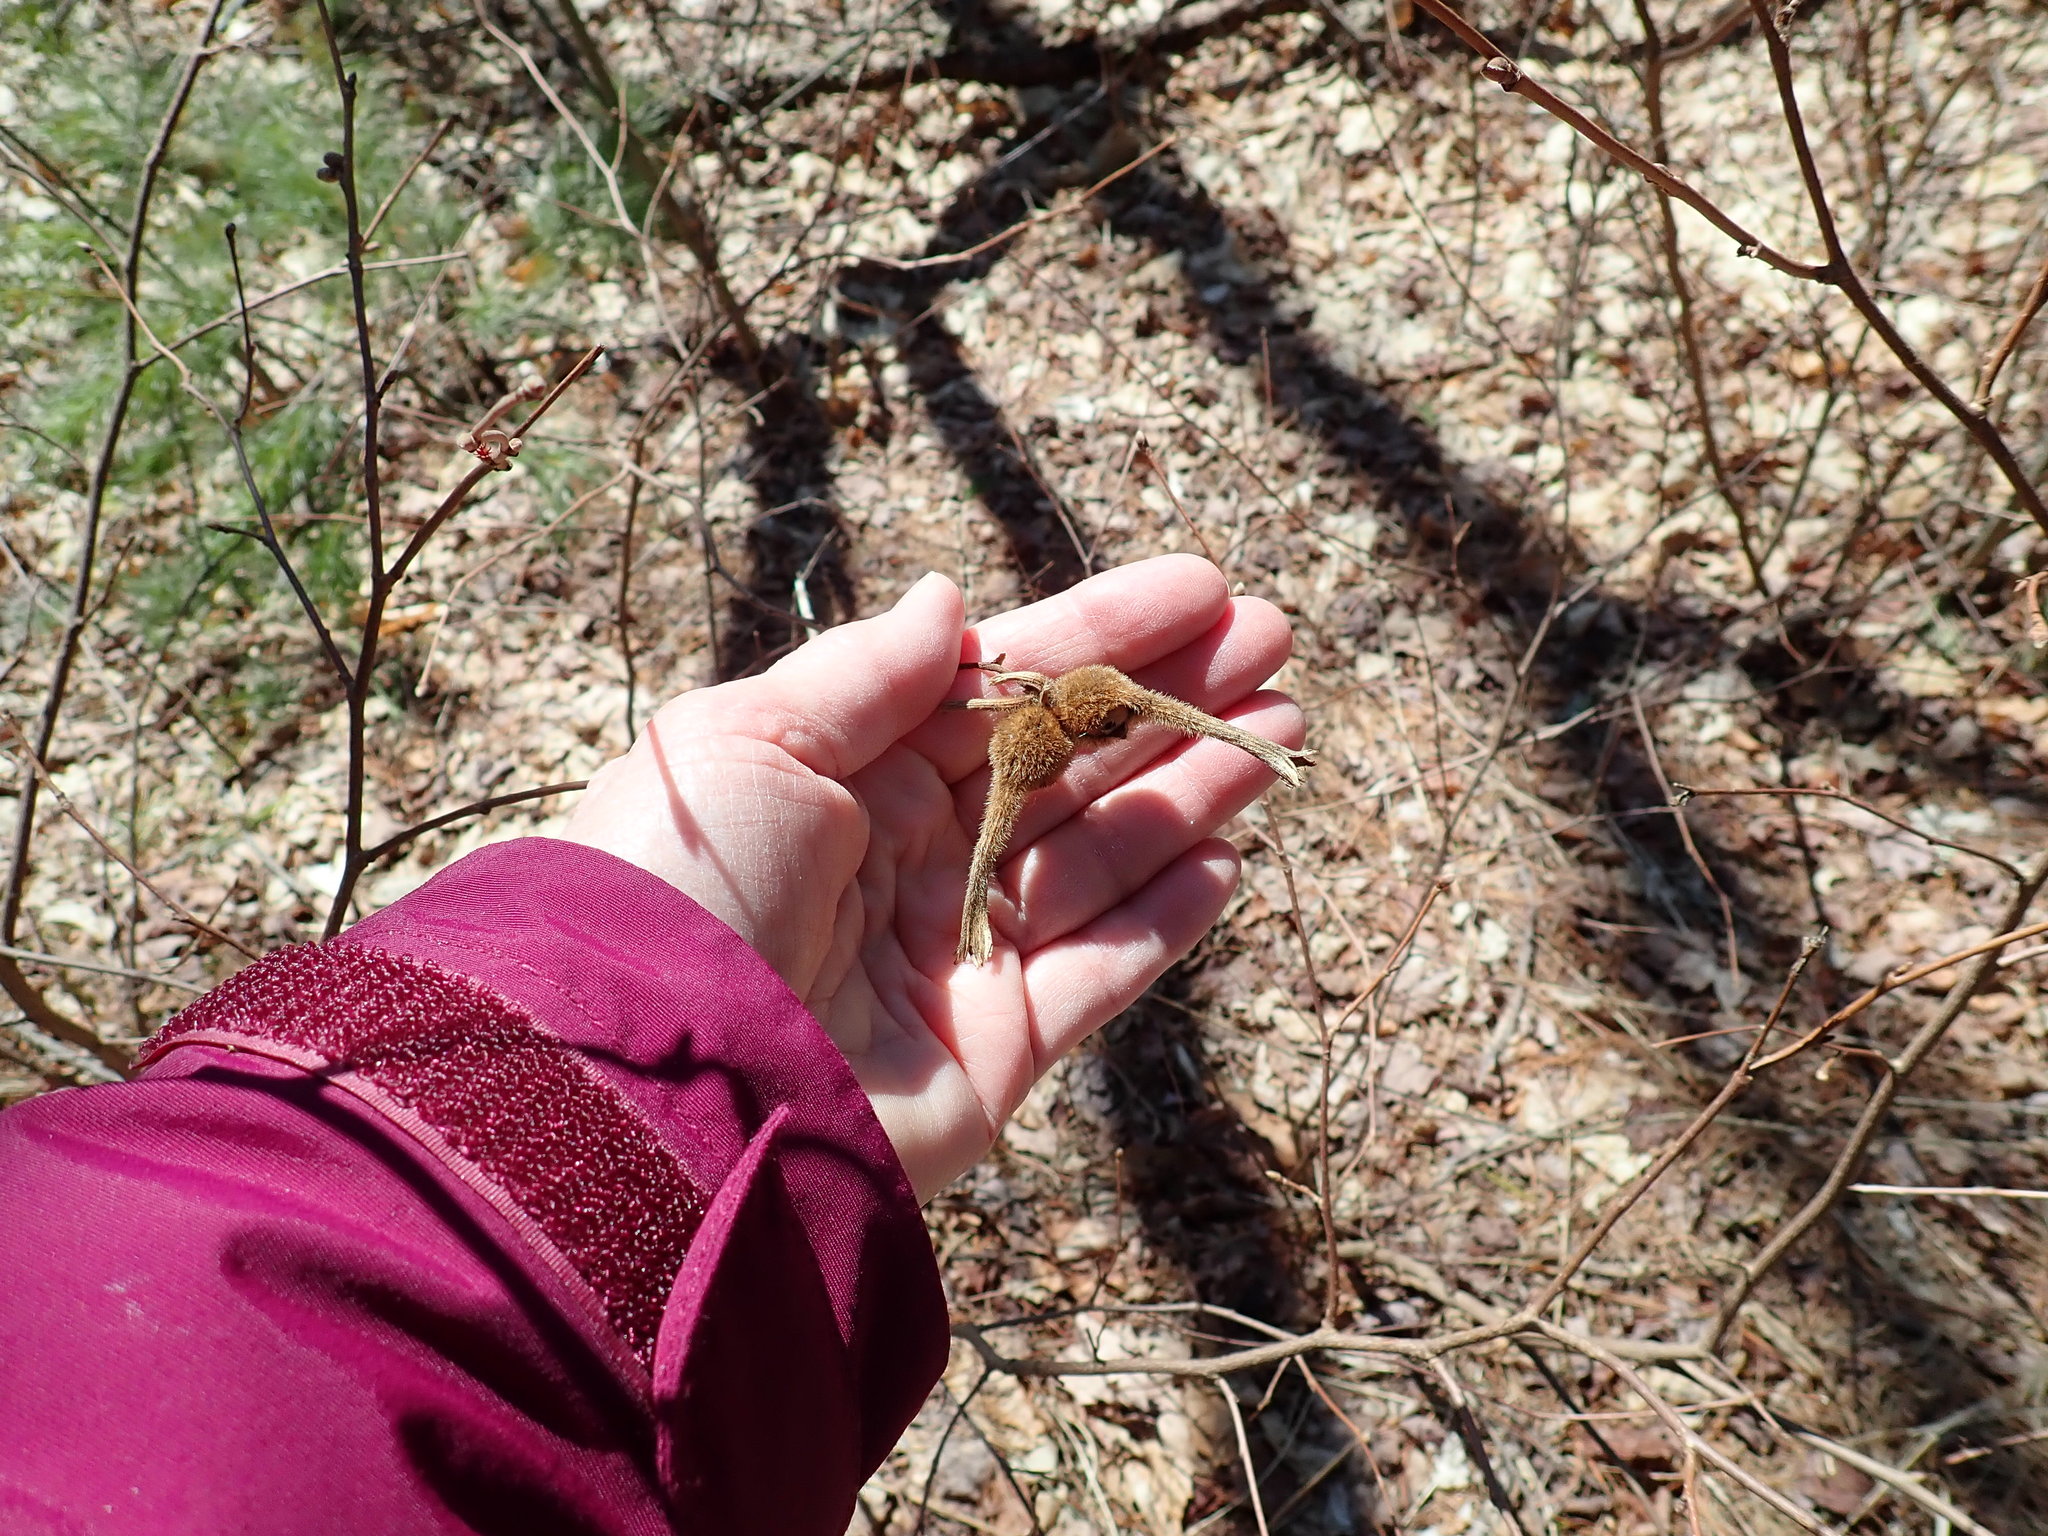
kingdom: Plantae
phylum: Tracheophyta
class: Magnoliopsida
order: Fagales
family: Betulaceae
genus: Corylus
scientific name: Corylus cornuta
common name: Beaked hazel
